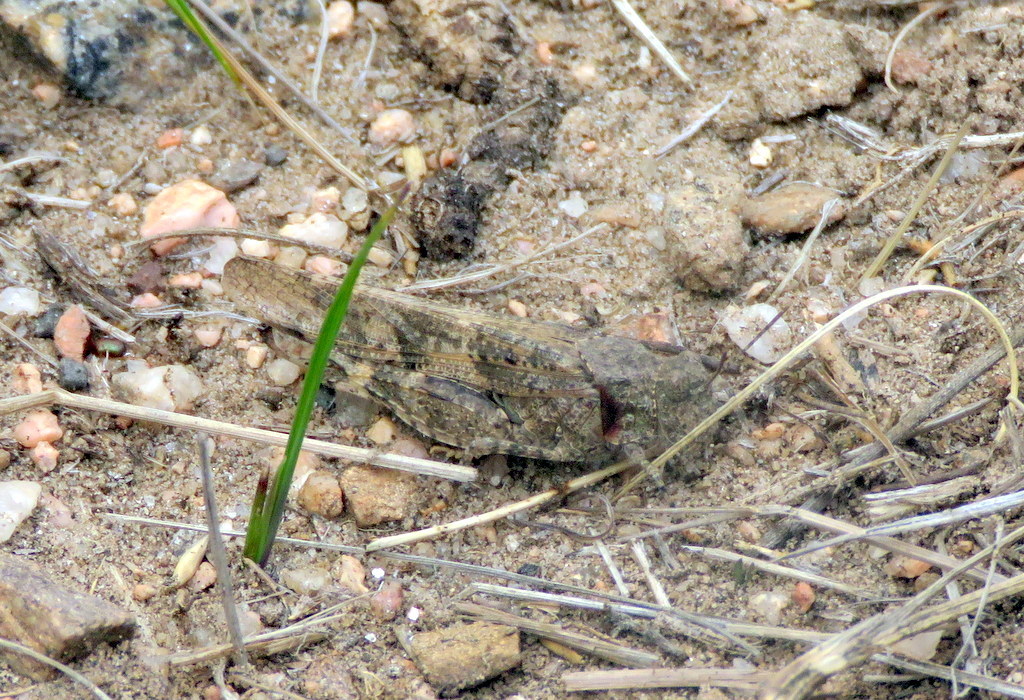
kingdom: Animalia
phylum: Arthropoda
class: Insecta
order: Orthoptera
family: Acrididae
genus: Trimerotropis
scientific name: Trimerotropis pallidipennis
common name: Pallid-winged grasshopper
